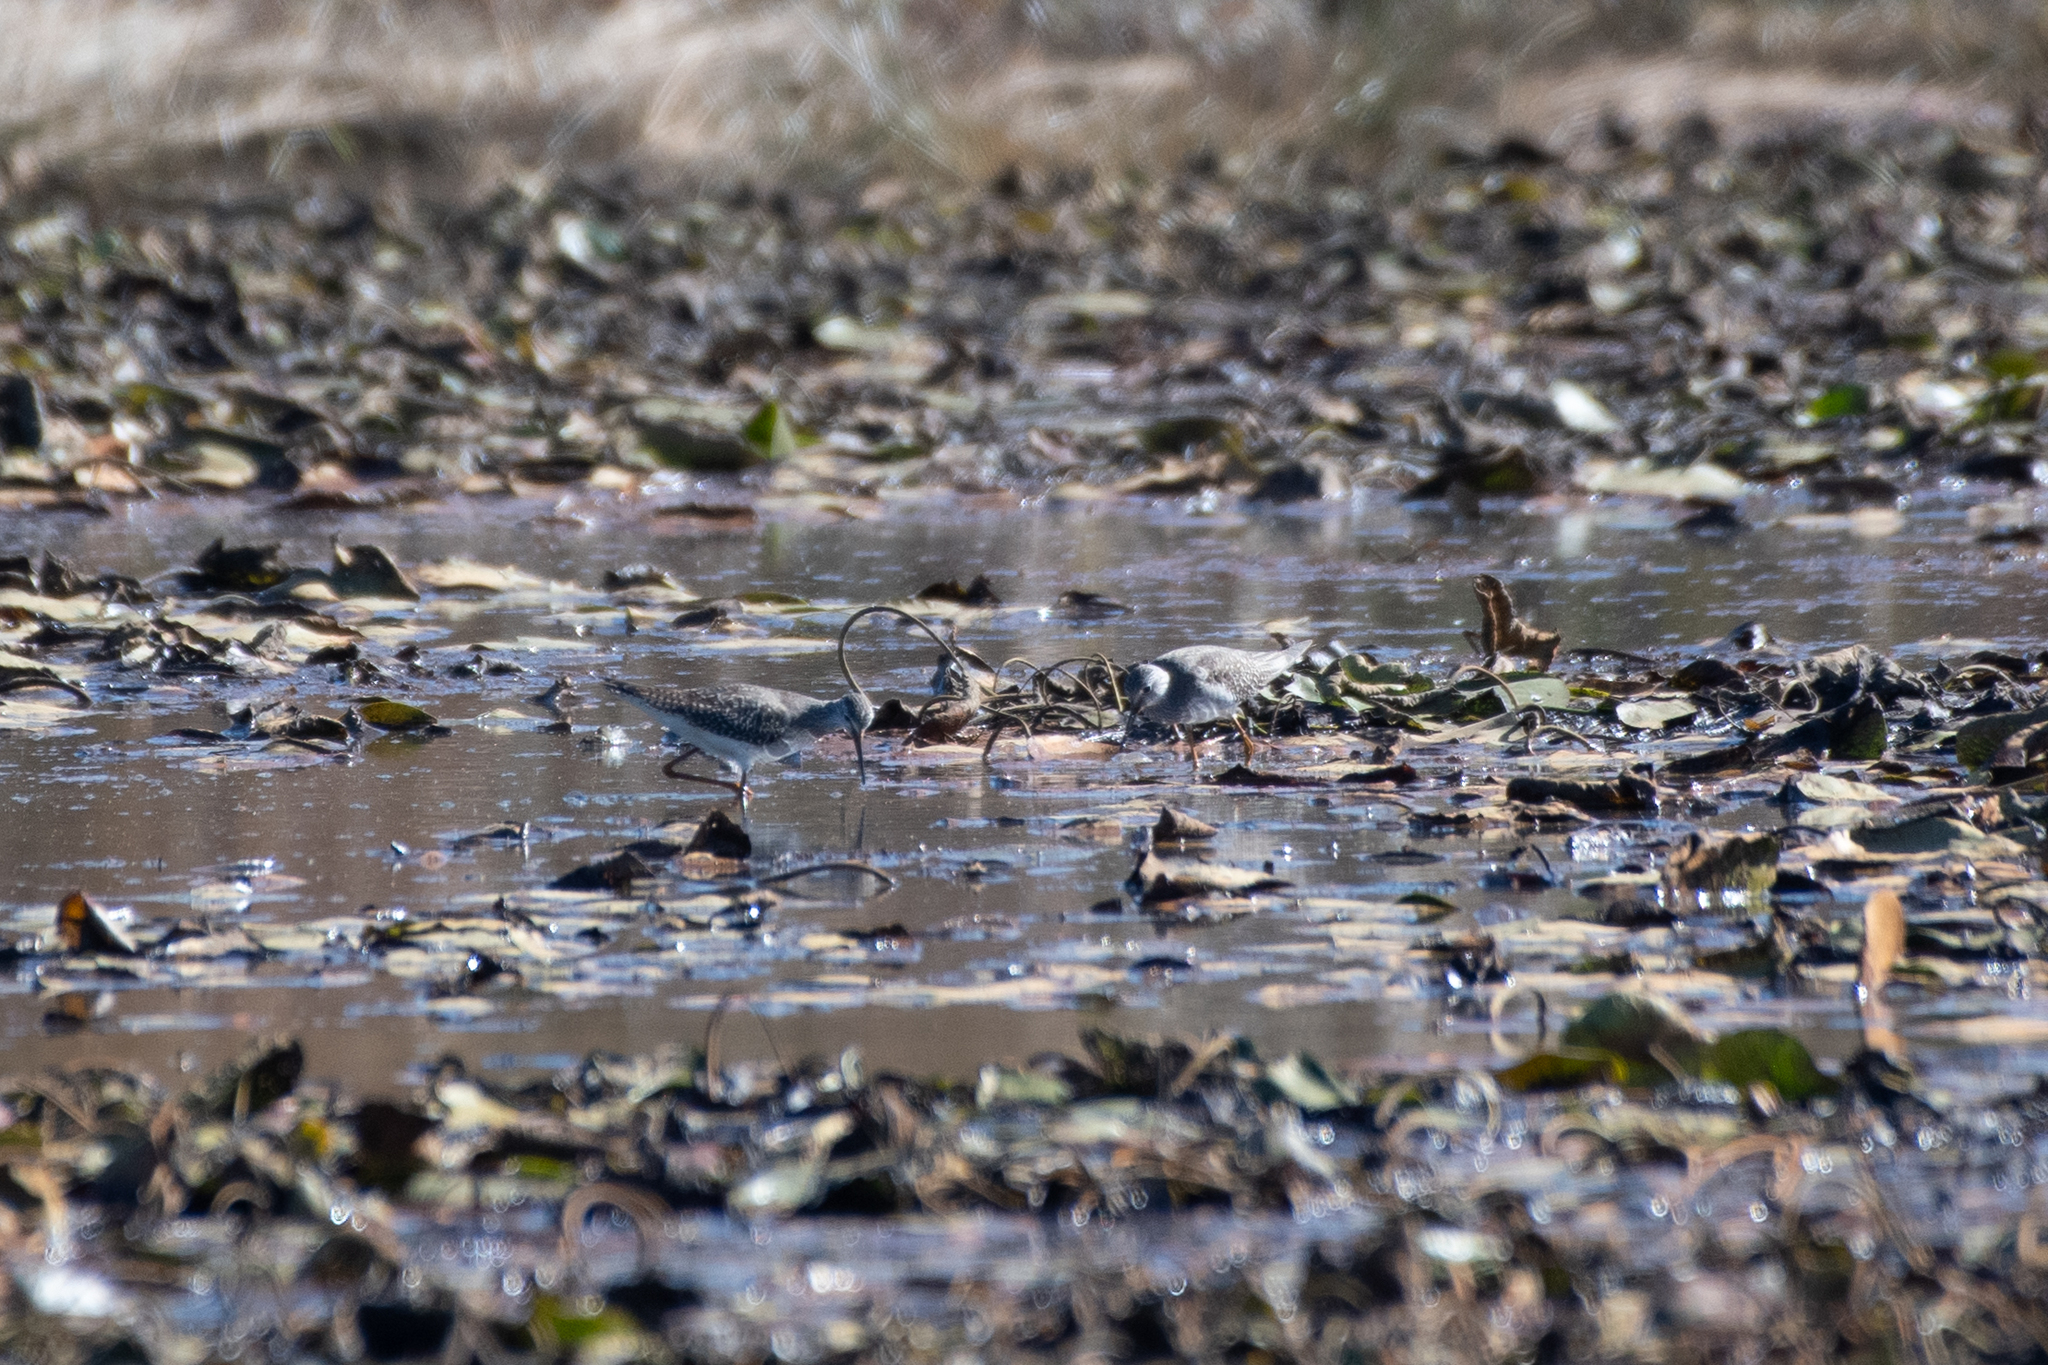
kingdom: Animalia
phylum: Chordata
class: Aves
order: Charadriiformes
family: Scolopacidae
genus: Tringa
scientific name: Tringa flavipes
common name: Lesser yellowlegs
